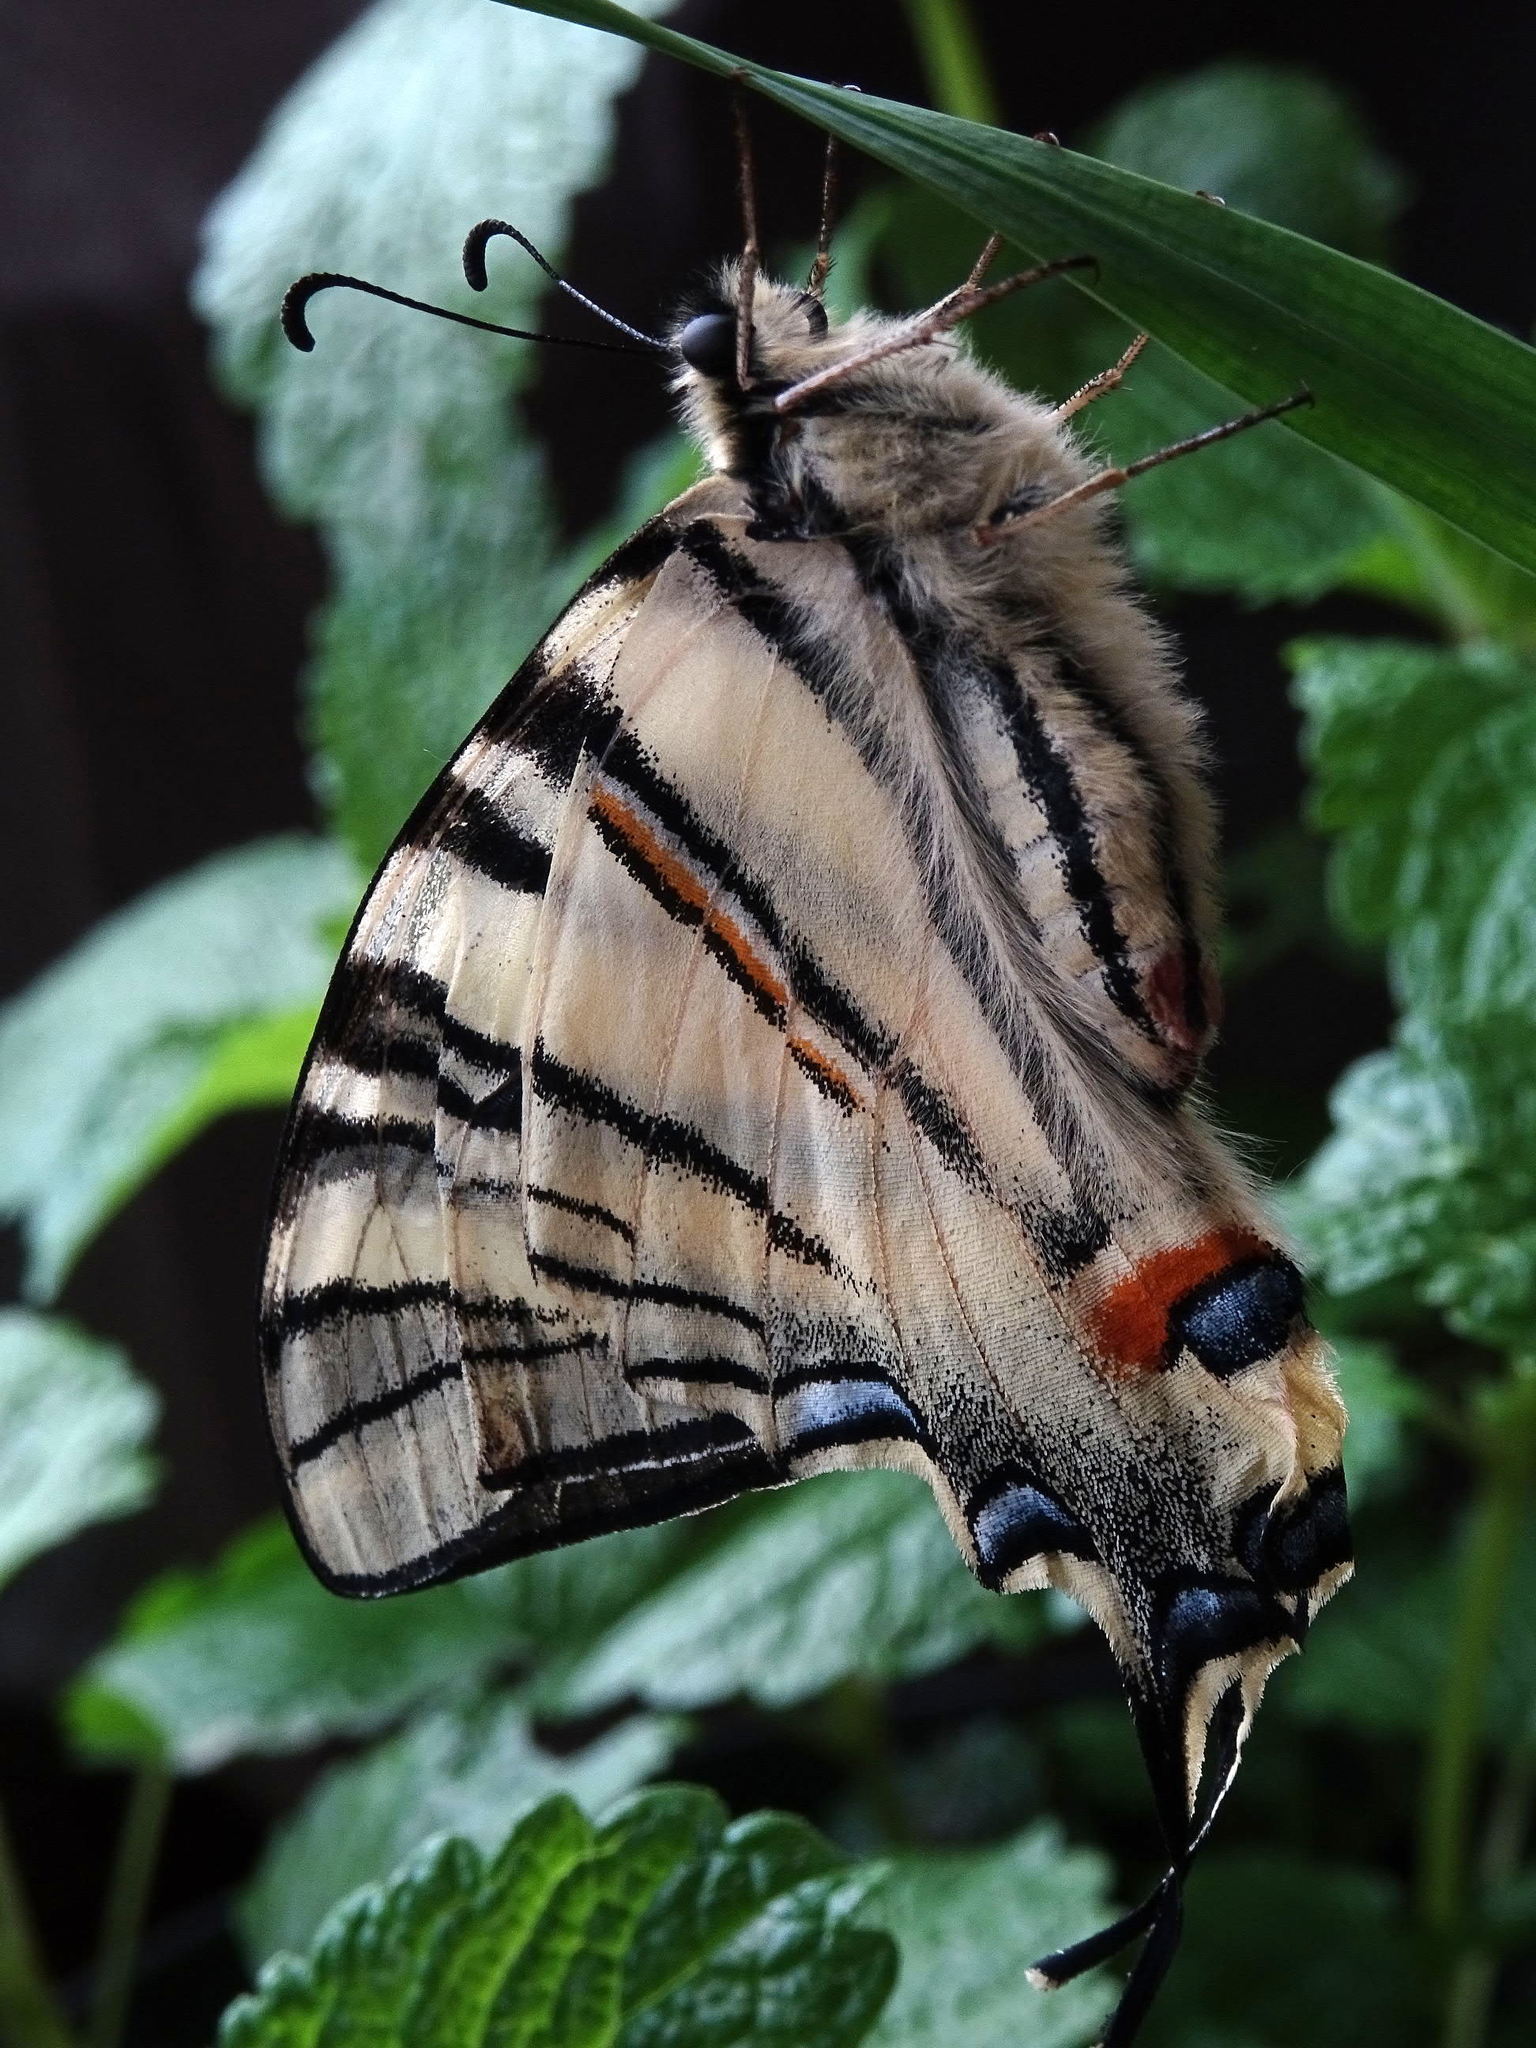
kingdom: Animalia
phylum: Arthropoda
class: Insecta
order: Lepidoptera
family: Papilionidae
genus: Iphiclides
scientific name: Iphiclides podalirius
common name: Scarce swallowtail
